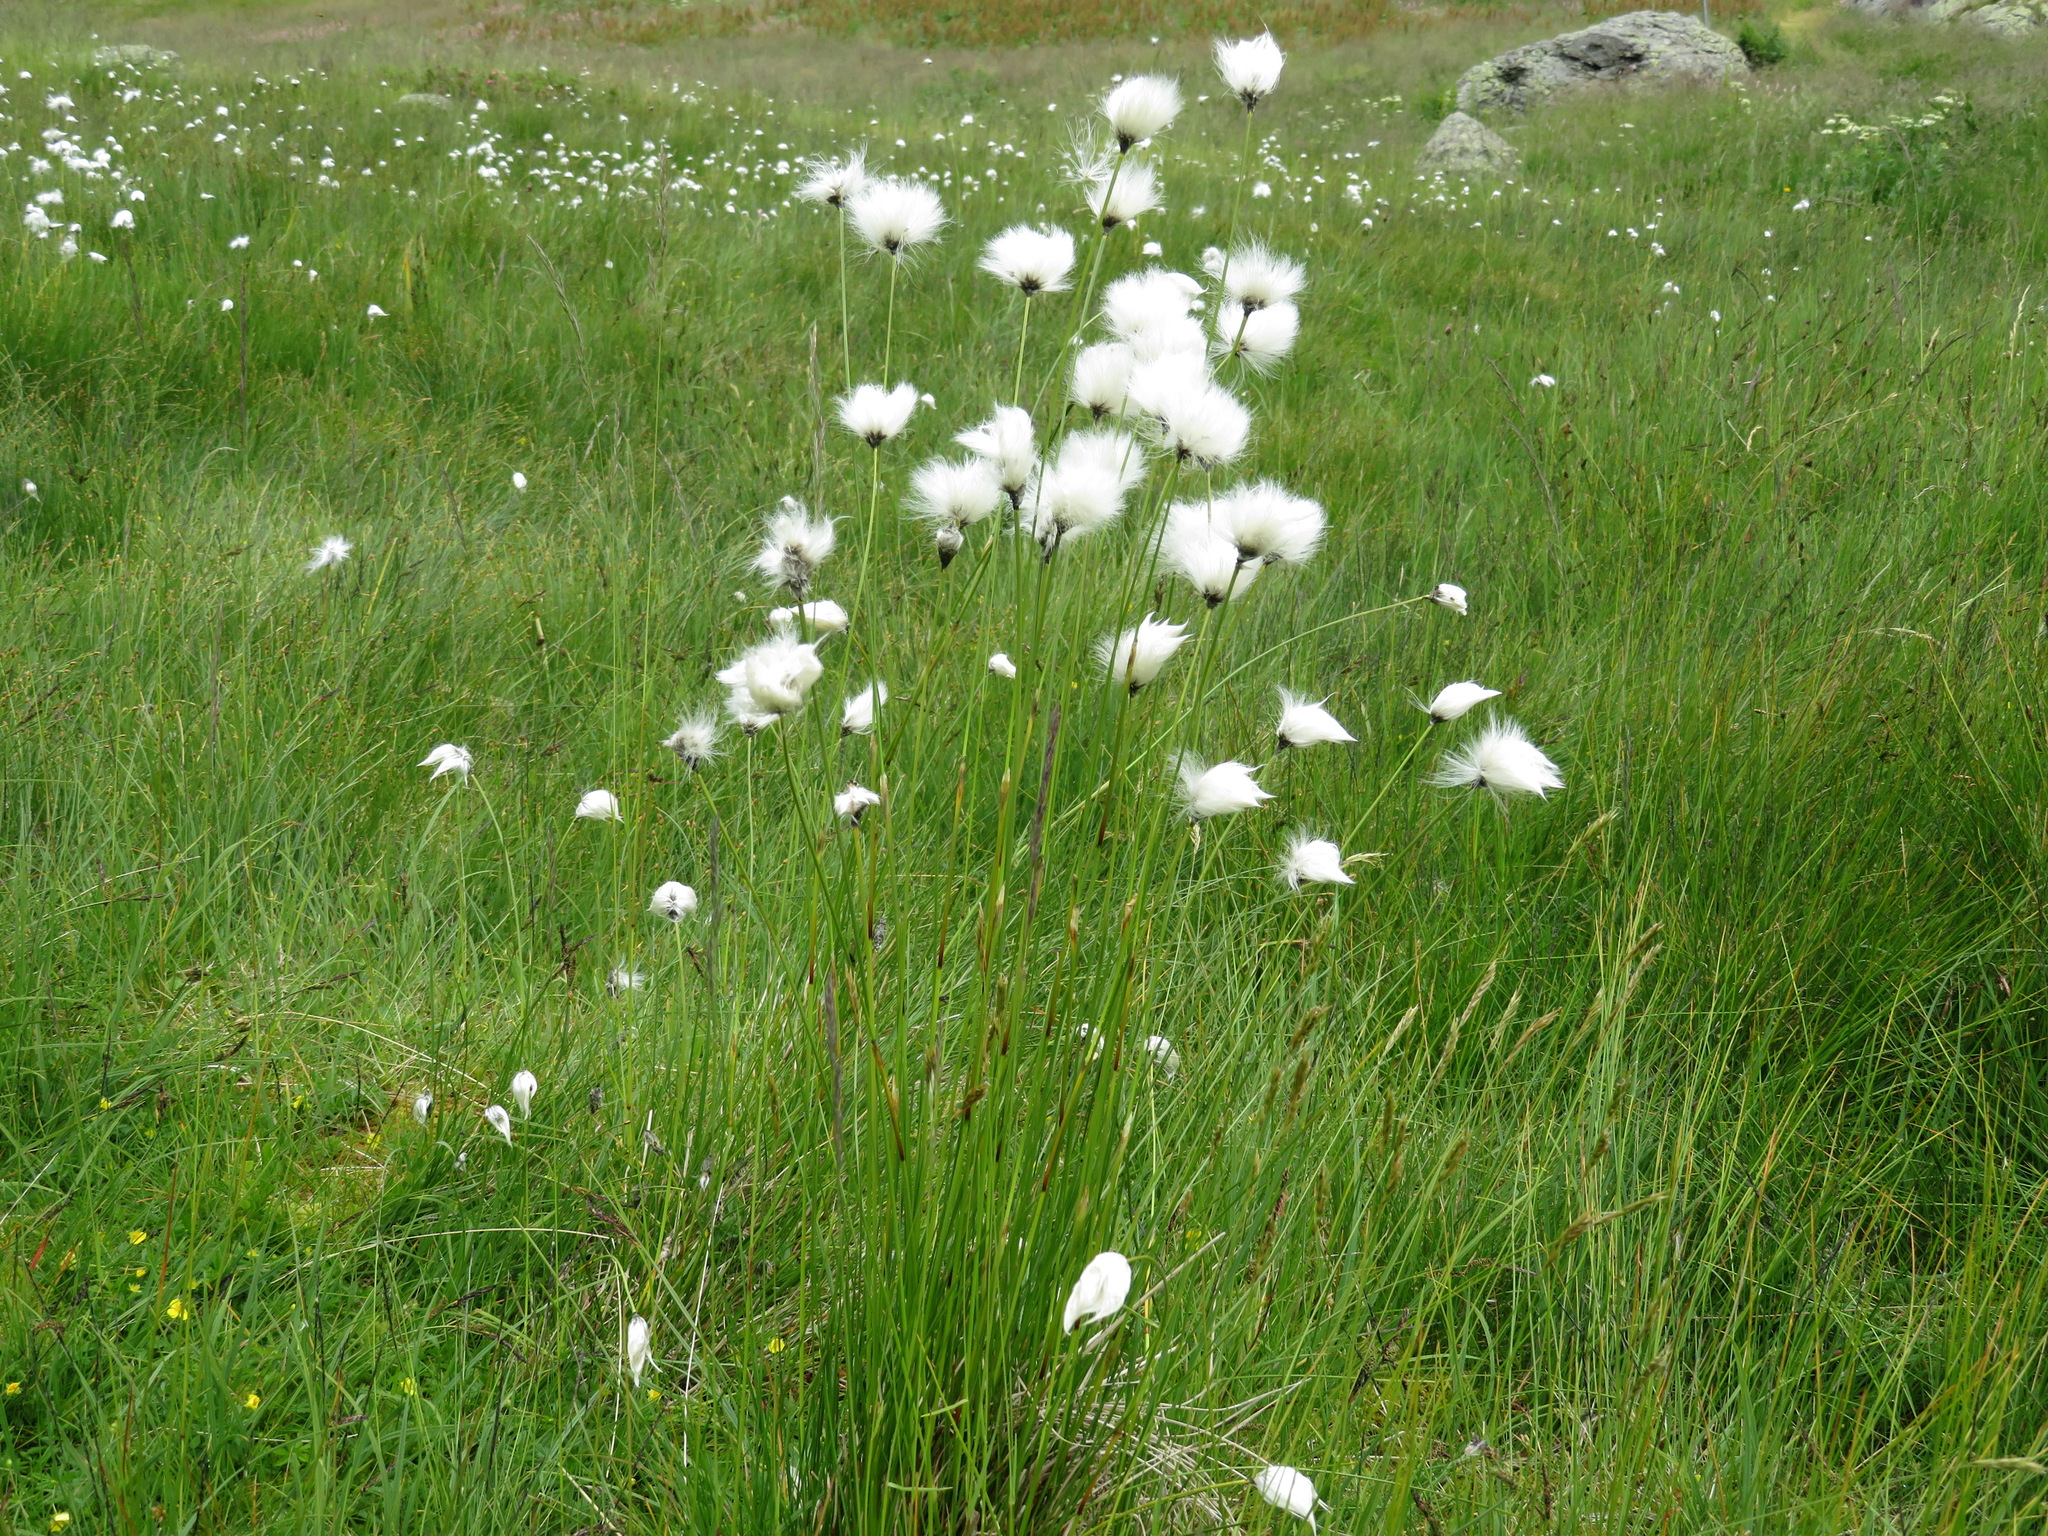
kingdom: Plantae
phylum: Tracheophyta
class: Liliopsida
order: Poales
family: Cyperaceae
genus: Eriophorum
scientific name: Eriophorum scheuchzeri
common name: Scheuchzer's cottongrass
